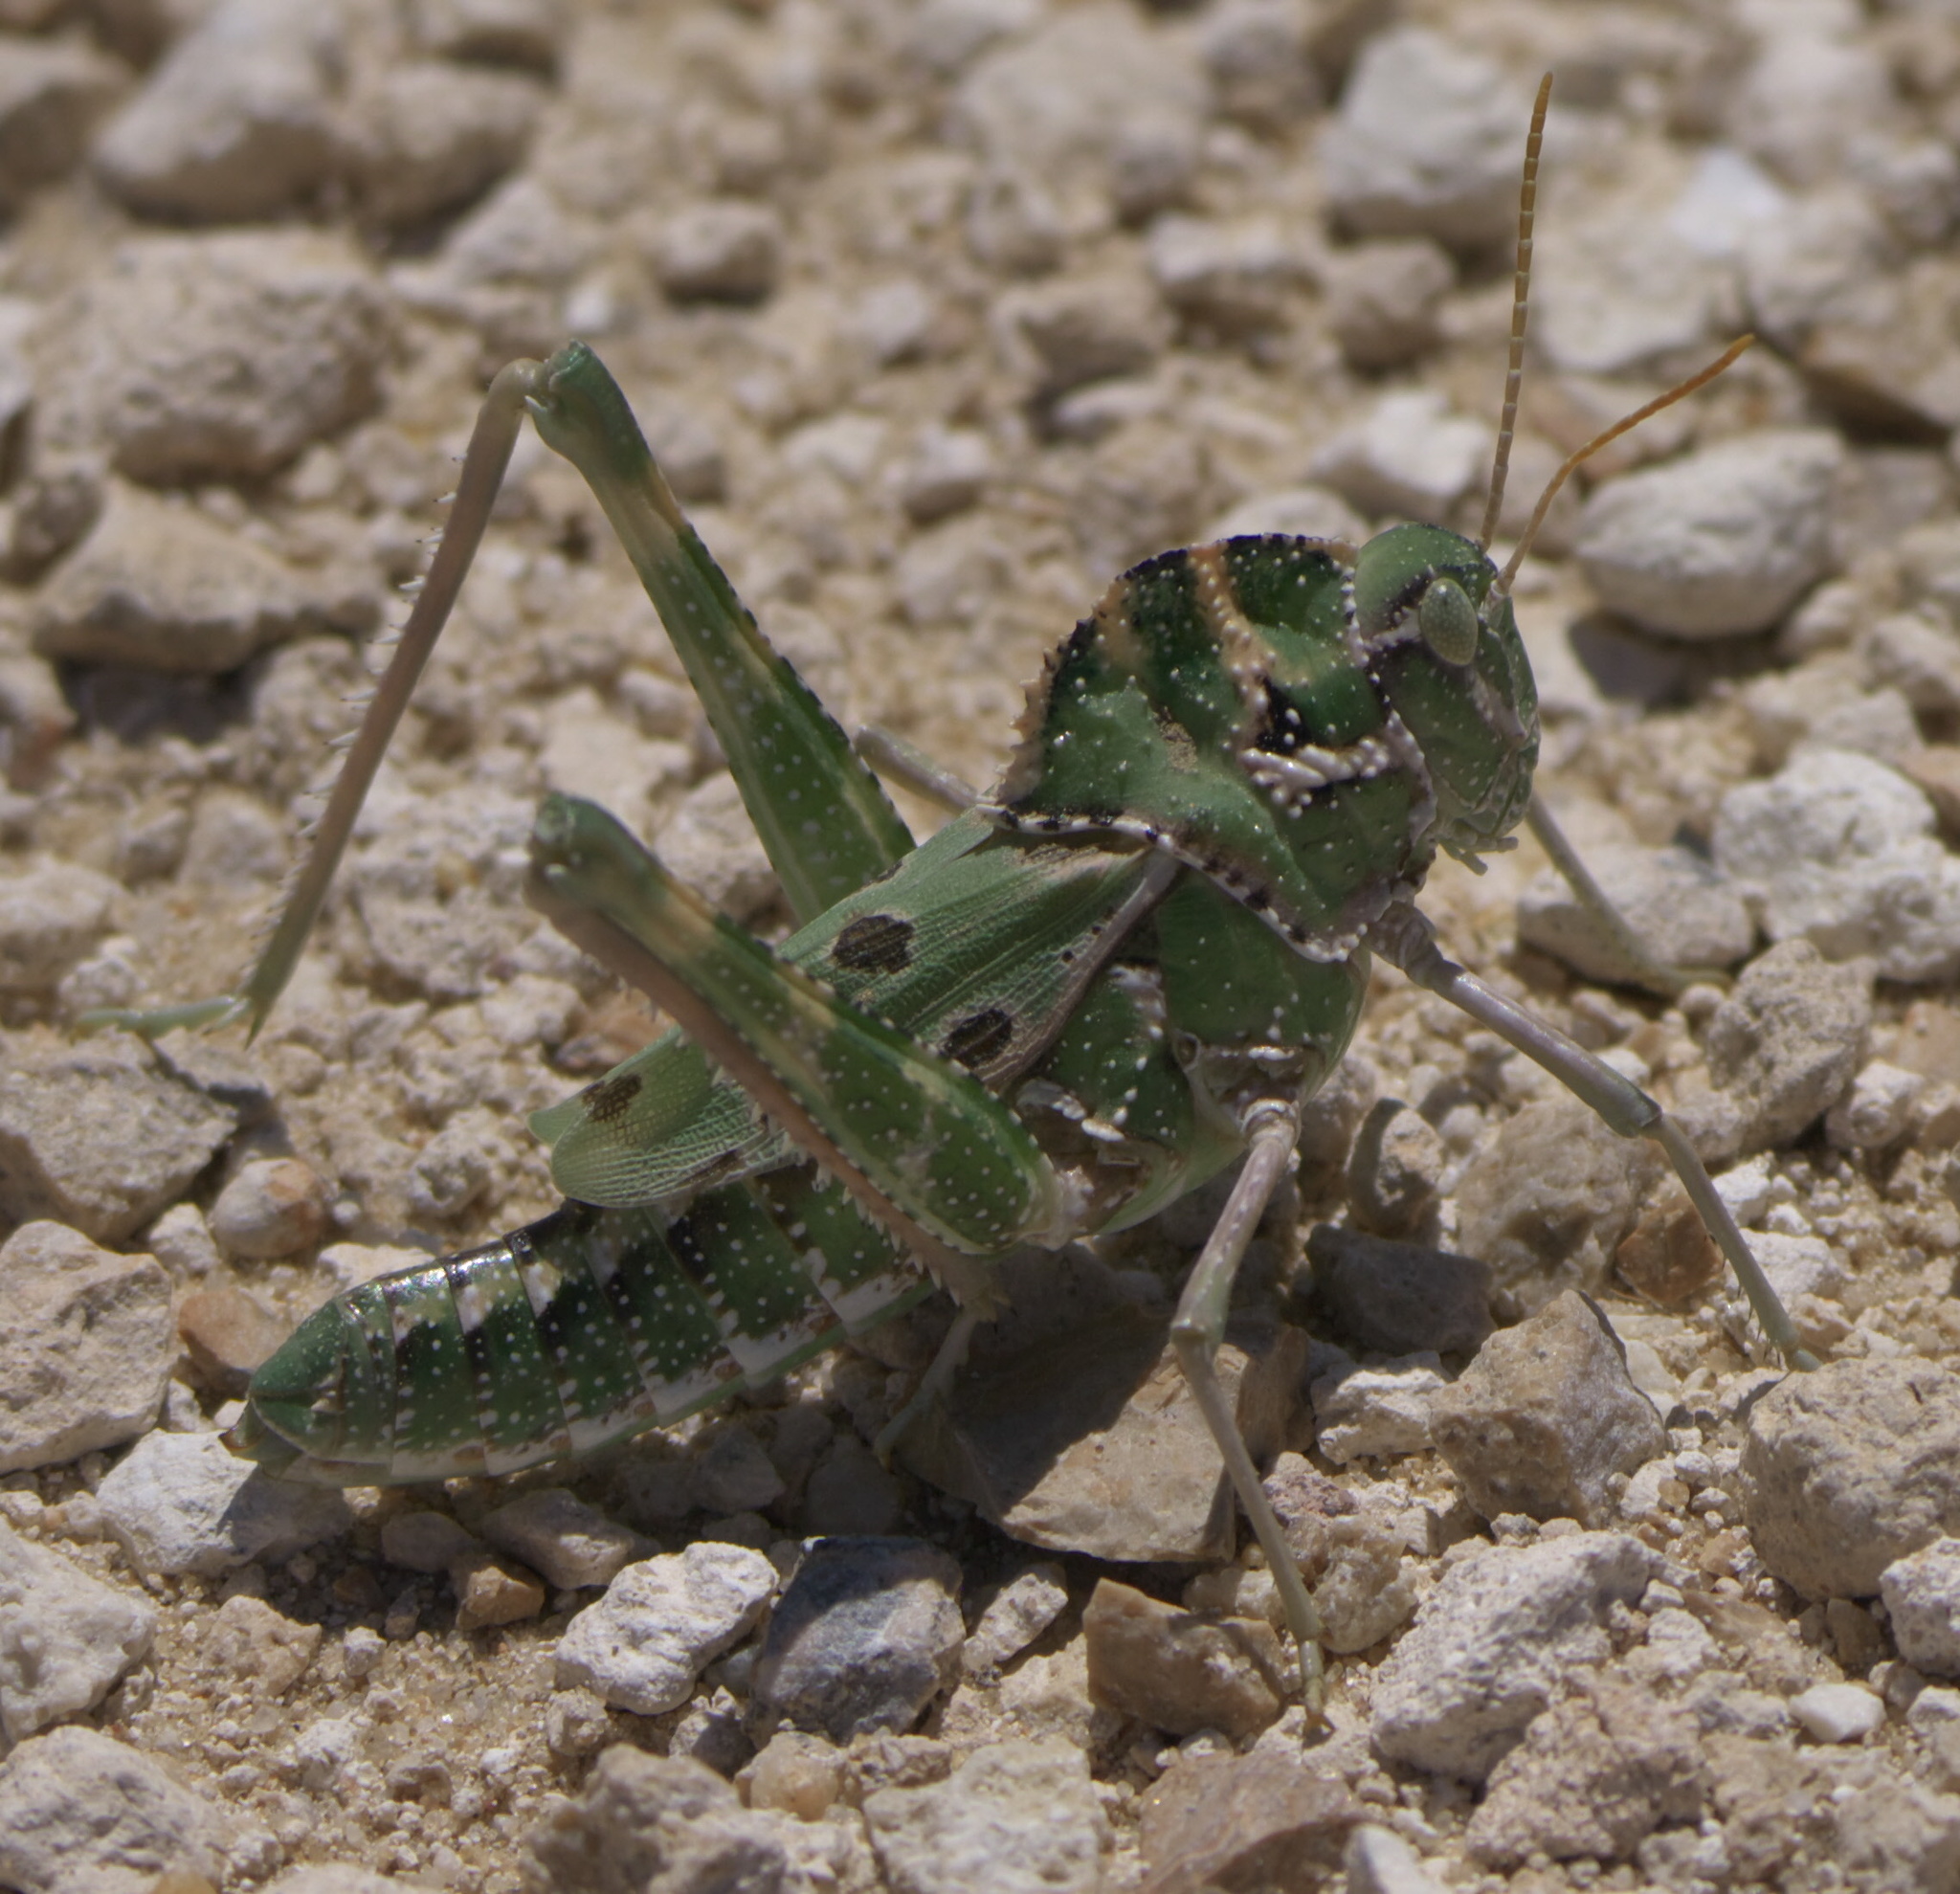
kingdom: Animalia
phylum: Arthropoda
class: Insecta
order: Orthoptera
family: Acrididae
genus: Tropidolophus
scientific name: Tropidolophus formosus
